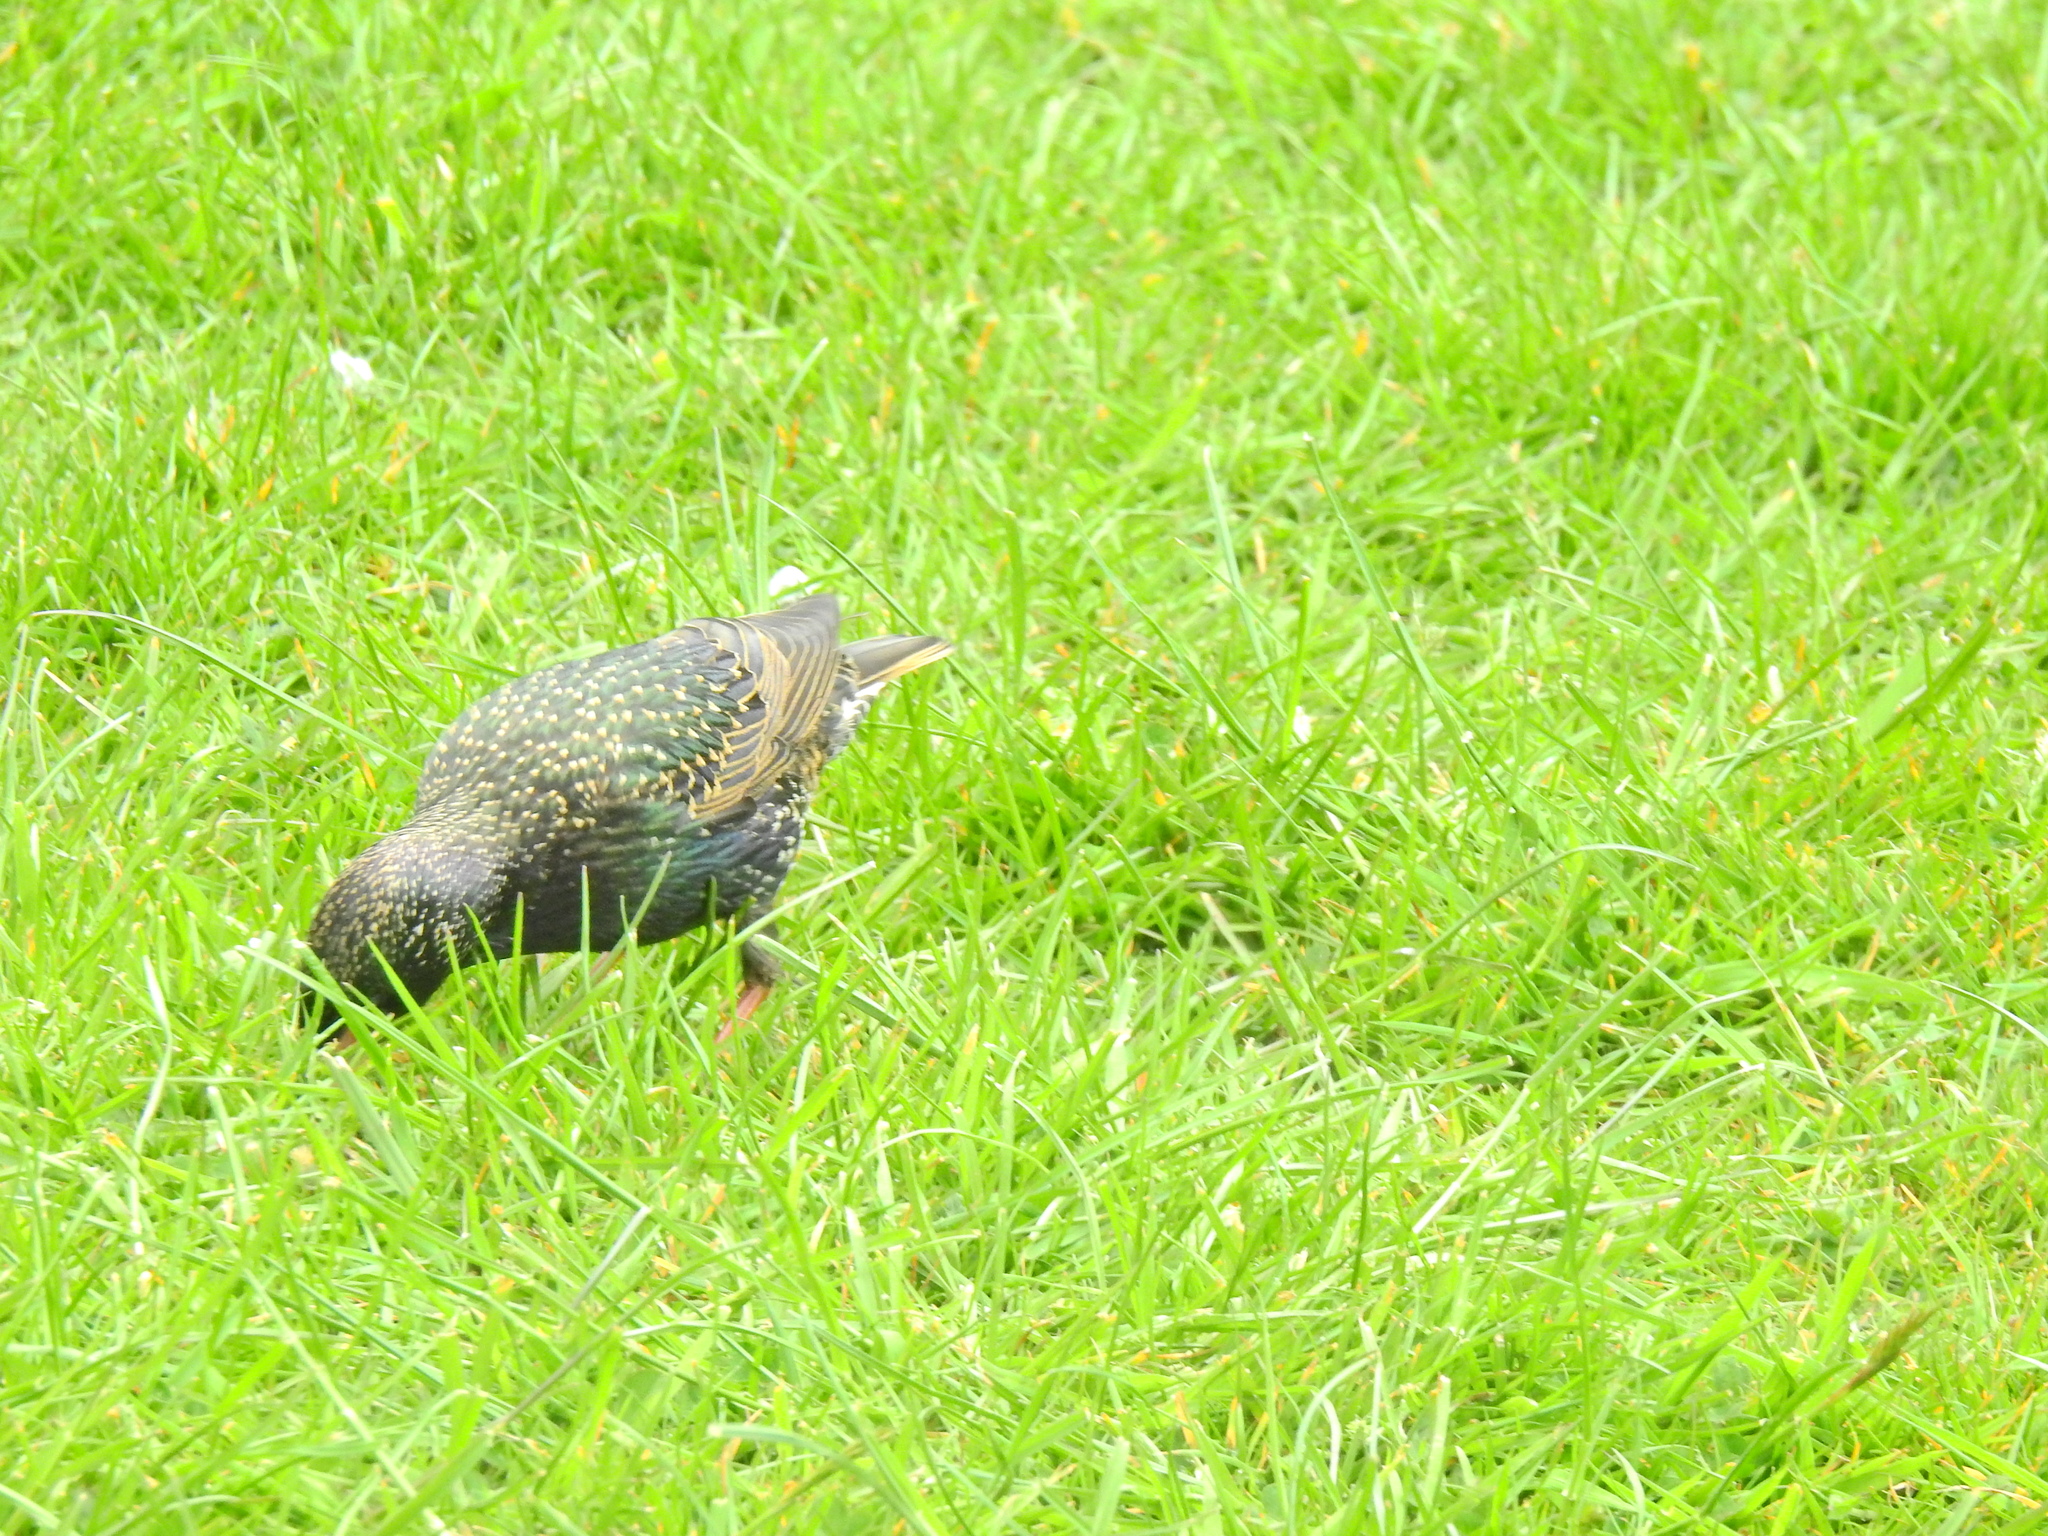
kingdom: Animalia
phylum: Chordata
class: Aves
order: Passeriformes
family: Sturnidae
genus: Sturnus
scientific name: Sturnus vulgaris
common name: Common starling
